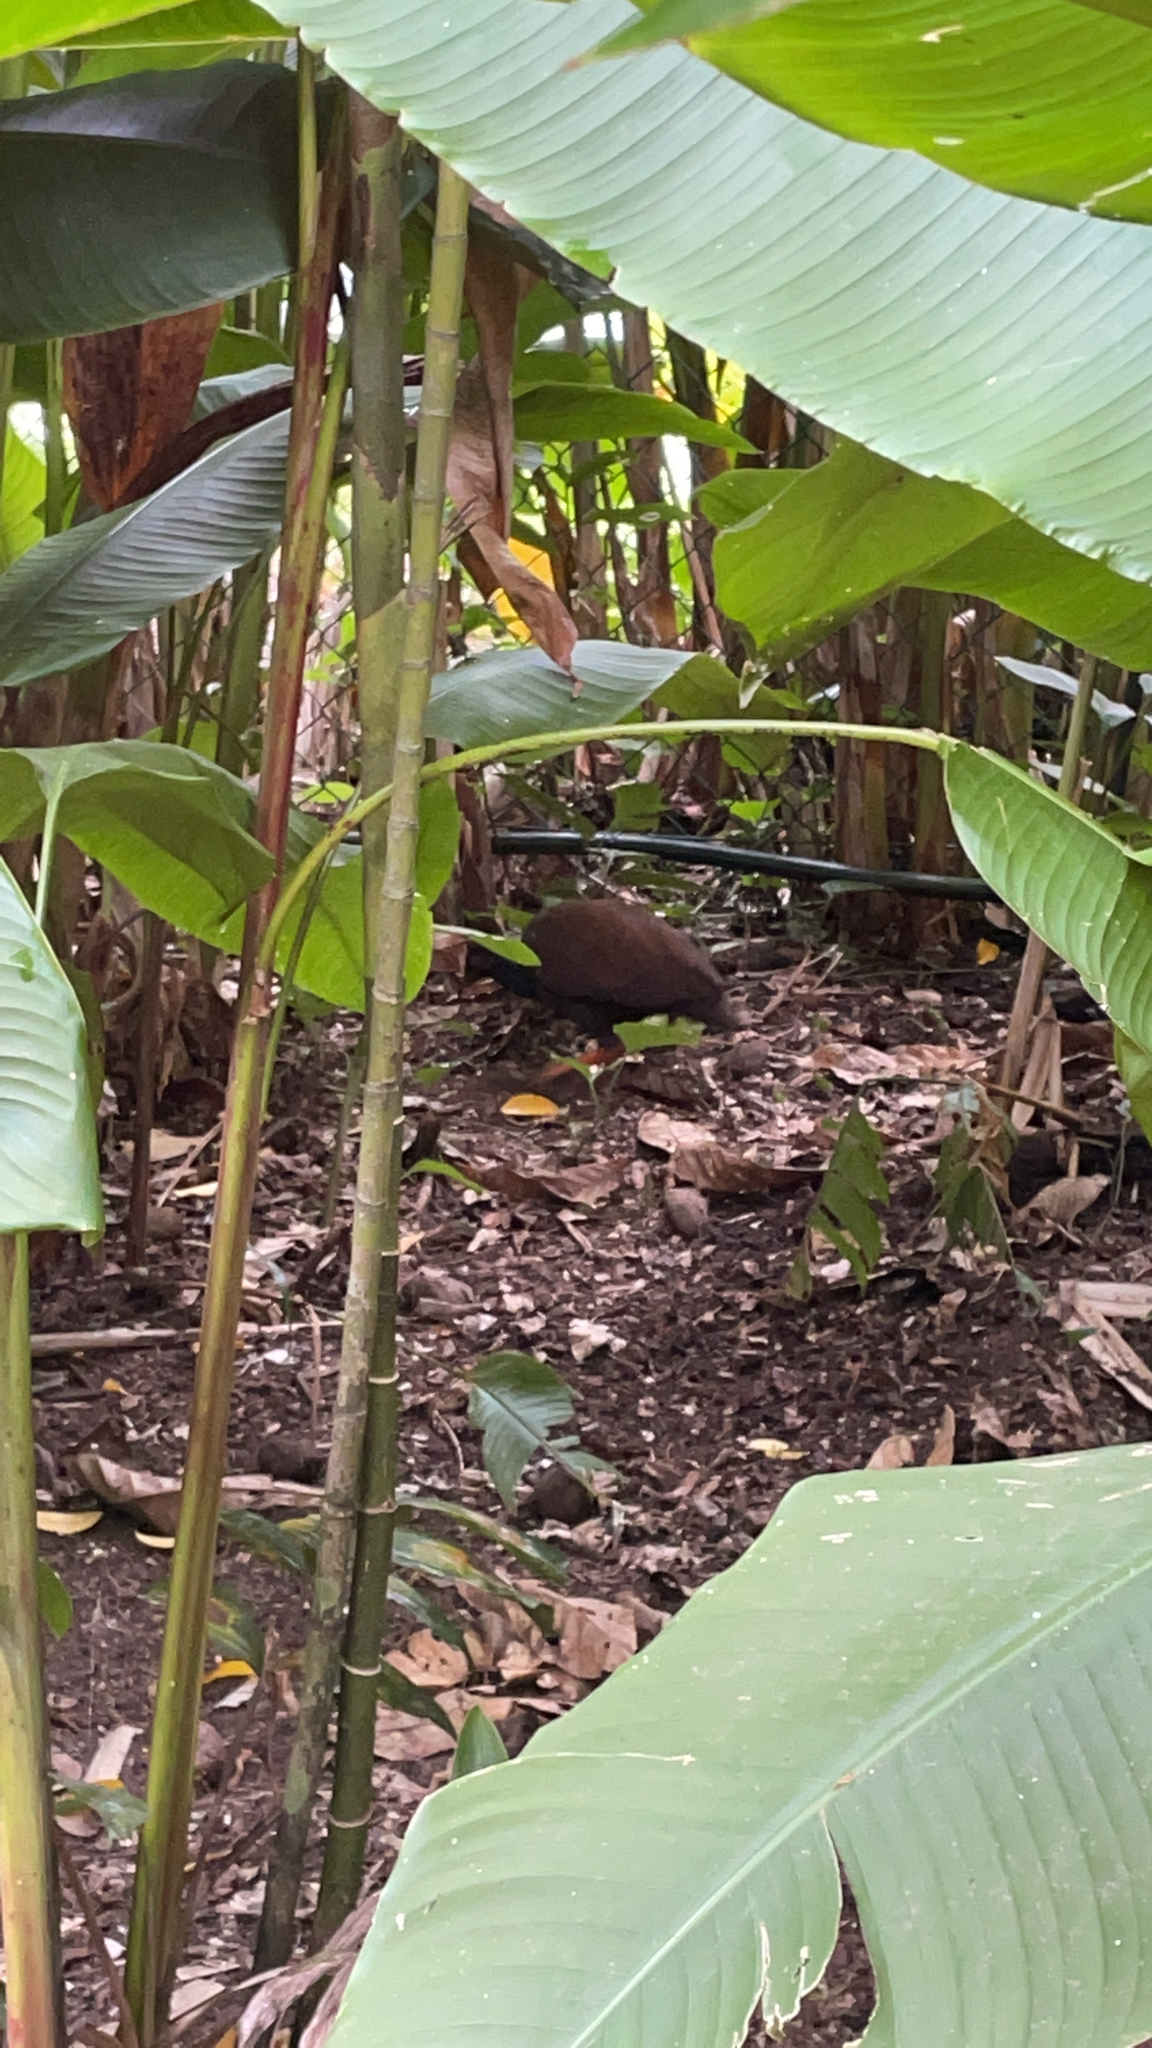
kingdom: Animalia
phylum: Chordata
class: Aves
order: Galliformes
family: Megapodiidae
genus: Megapodius
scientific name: Megapodius reinwardt
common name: Orange-footed scrubfowl
